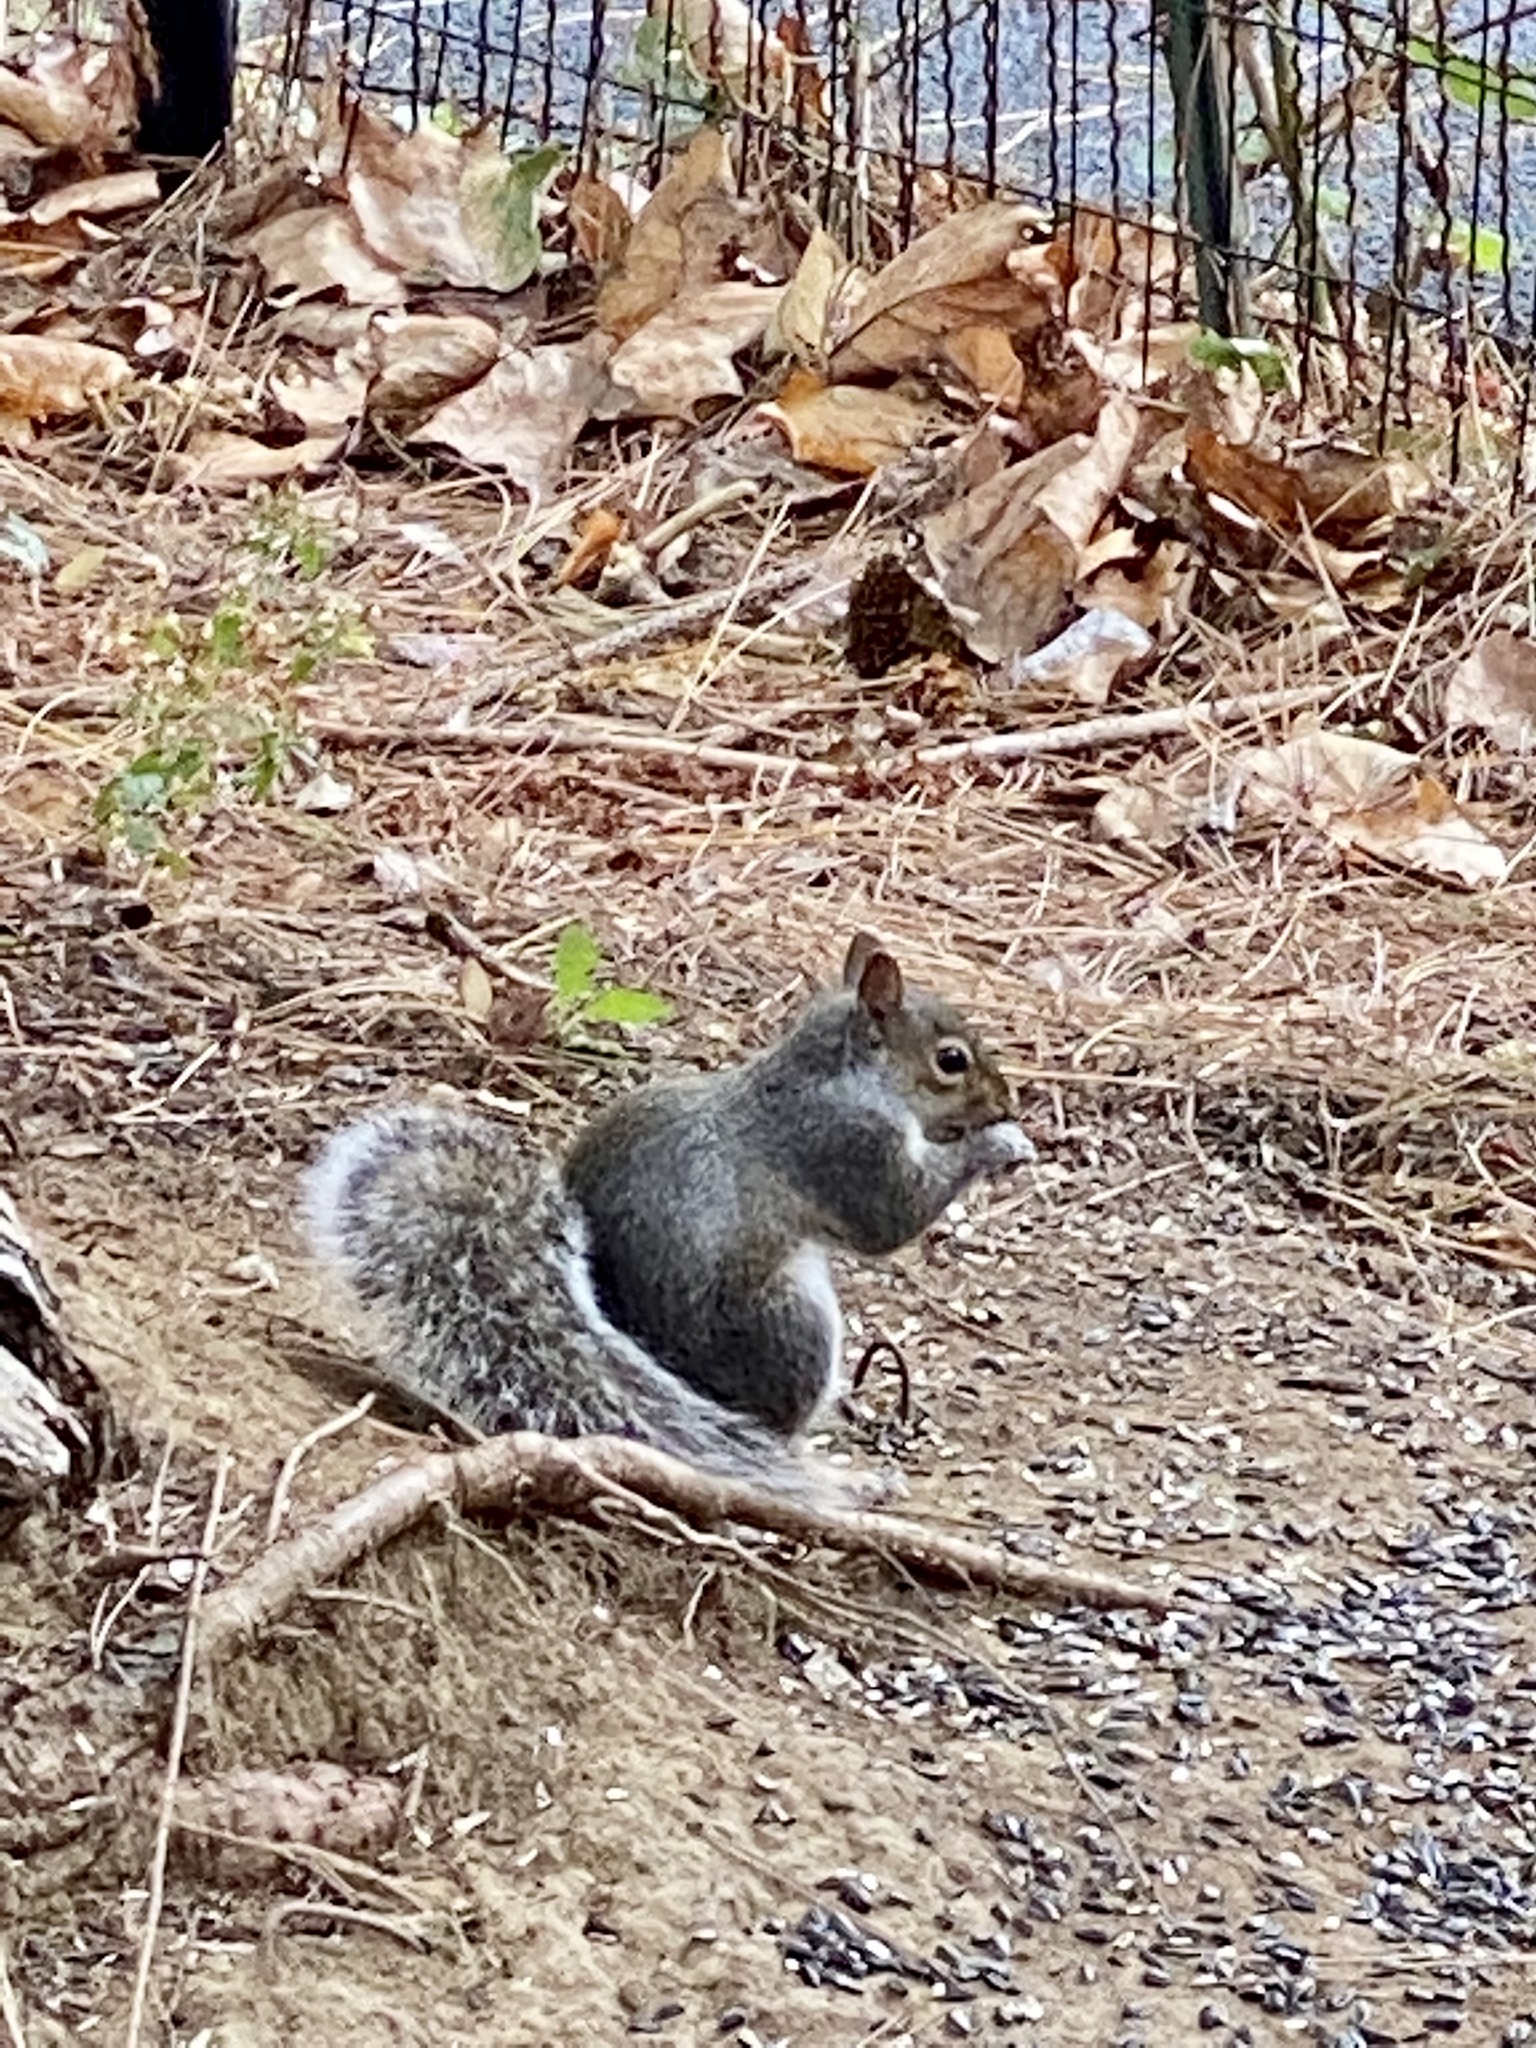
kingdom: Animalia
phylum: Chordata
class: Mammalia
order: Rodentia
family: Sciuridae
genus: Sciurus
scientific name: Sciurus carolinensis
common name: Eastern gray squirrel
